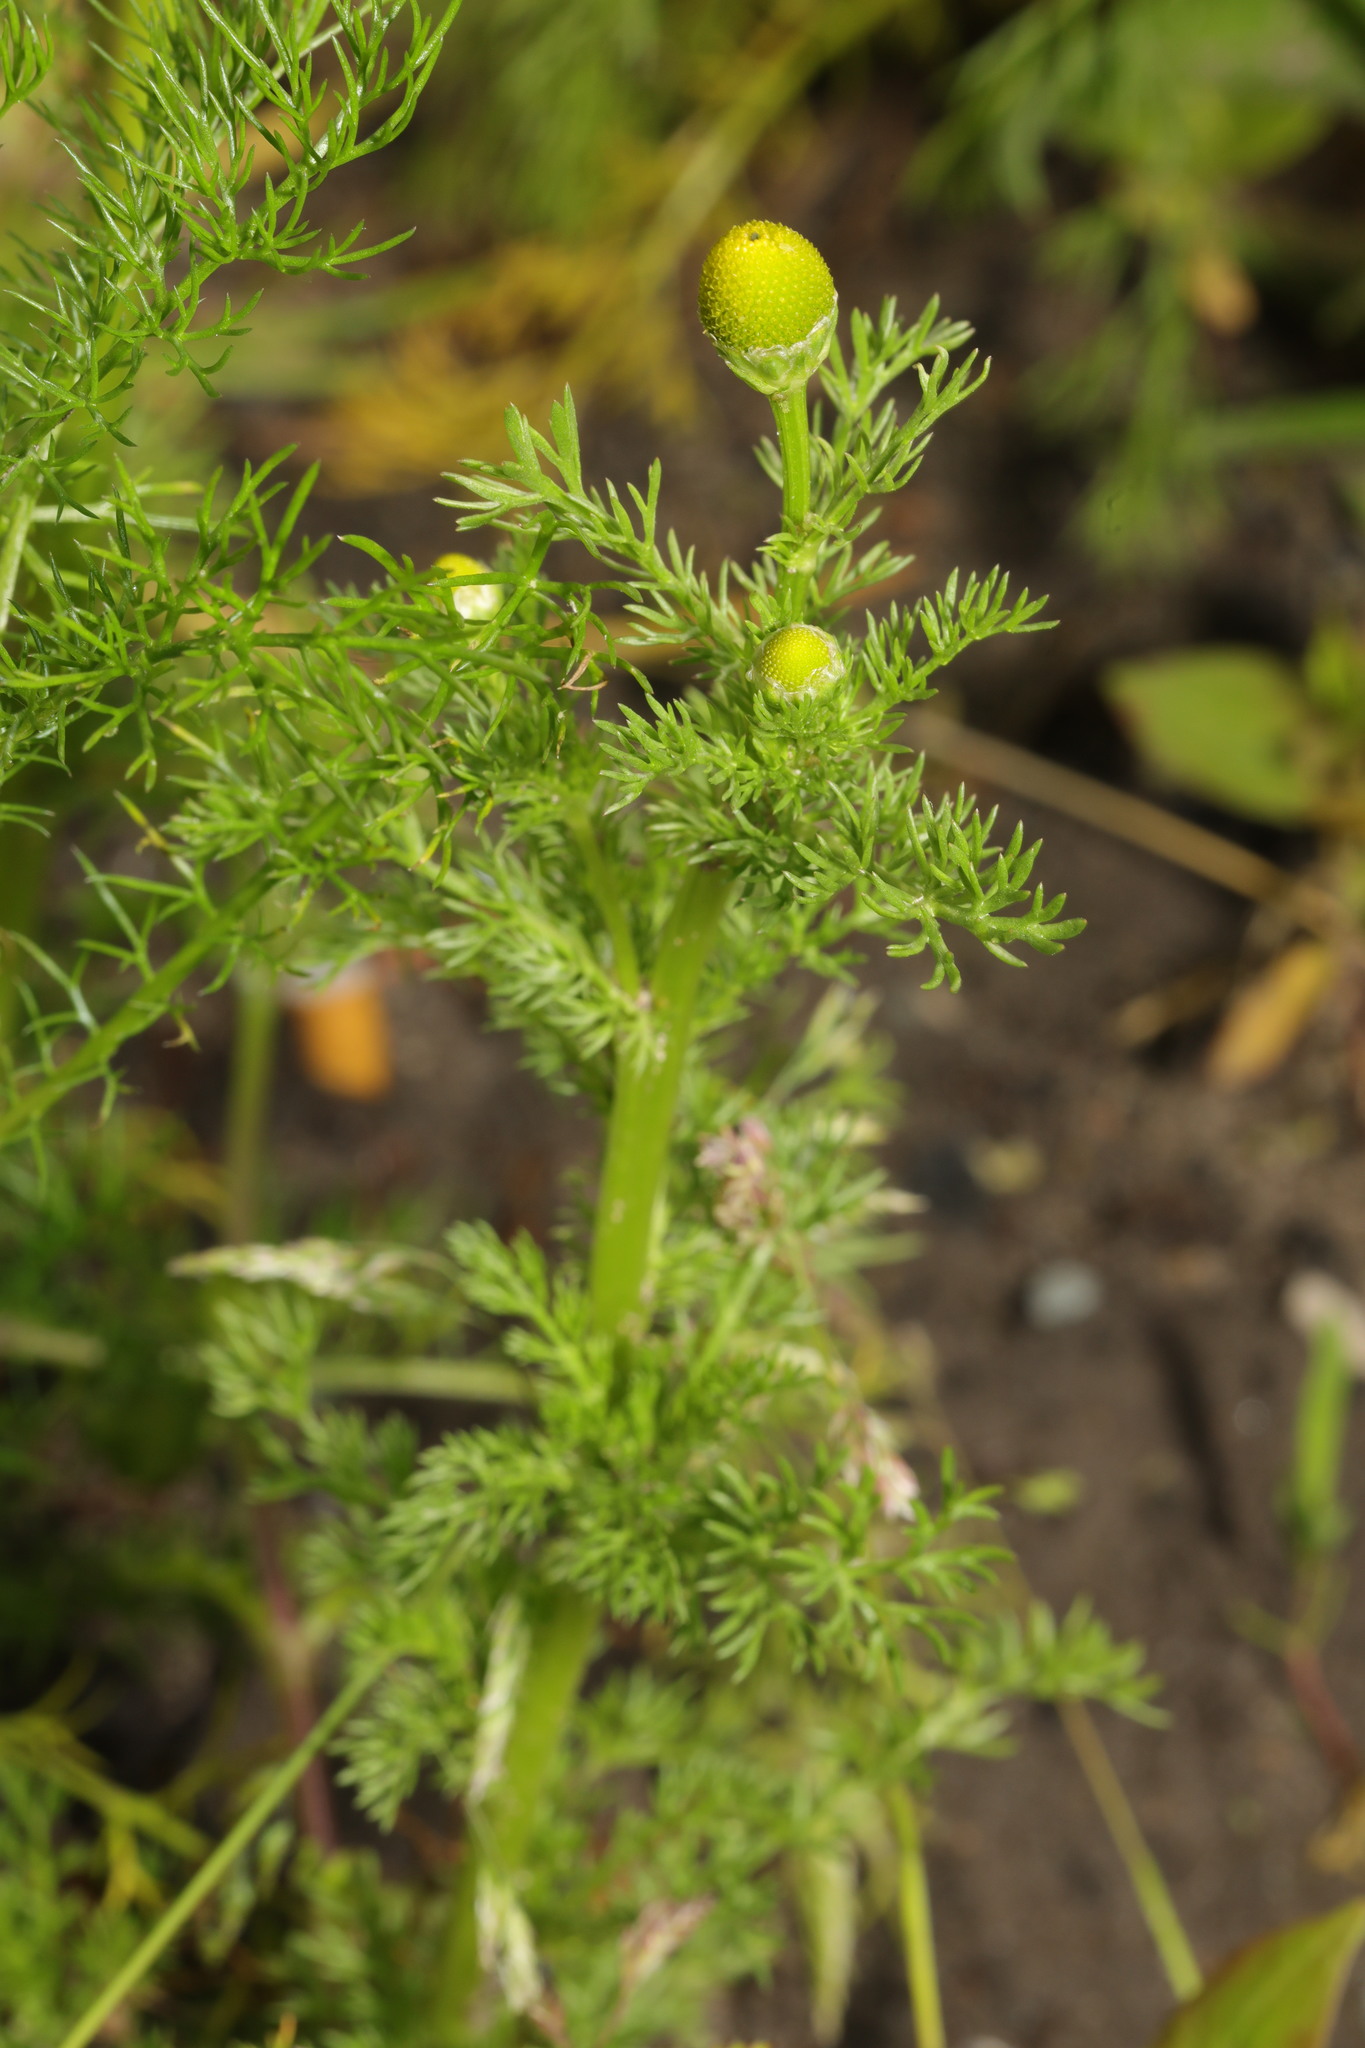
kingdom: Plantae
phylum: Tracheophyta
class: Magnoliopsida
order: Asterales
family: Asteraceae
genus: Matricaria
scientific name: Matricaria discoidea
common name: Disc mayweed
